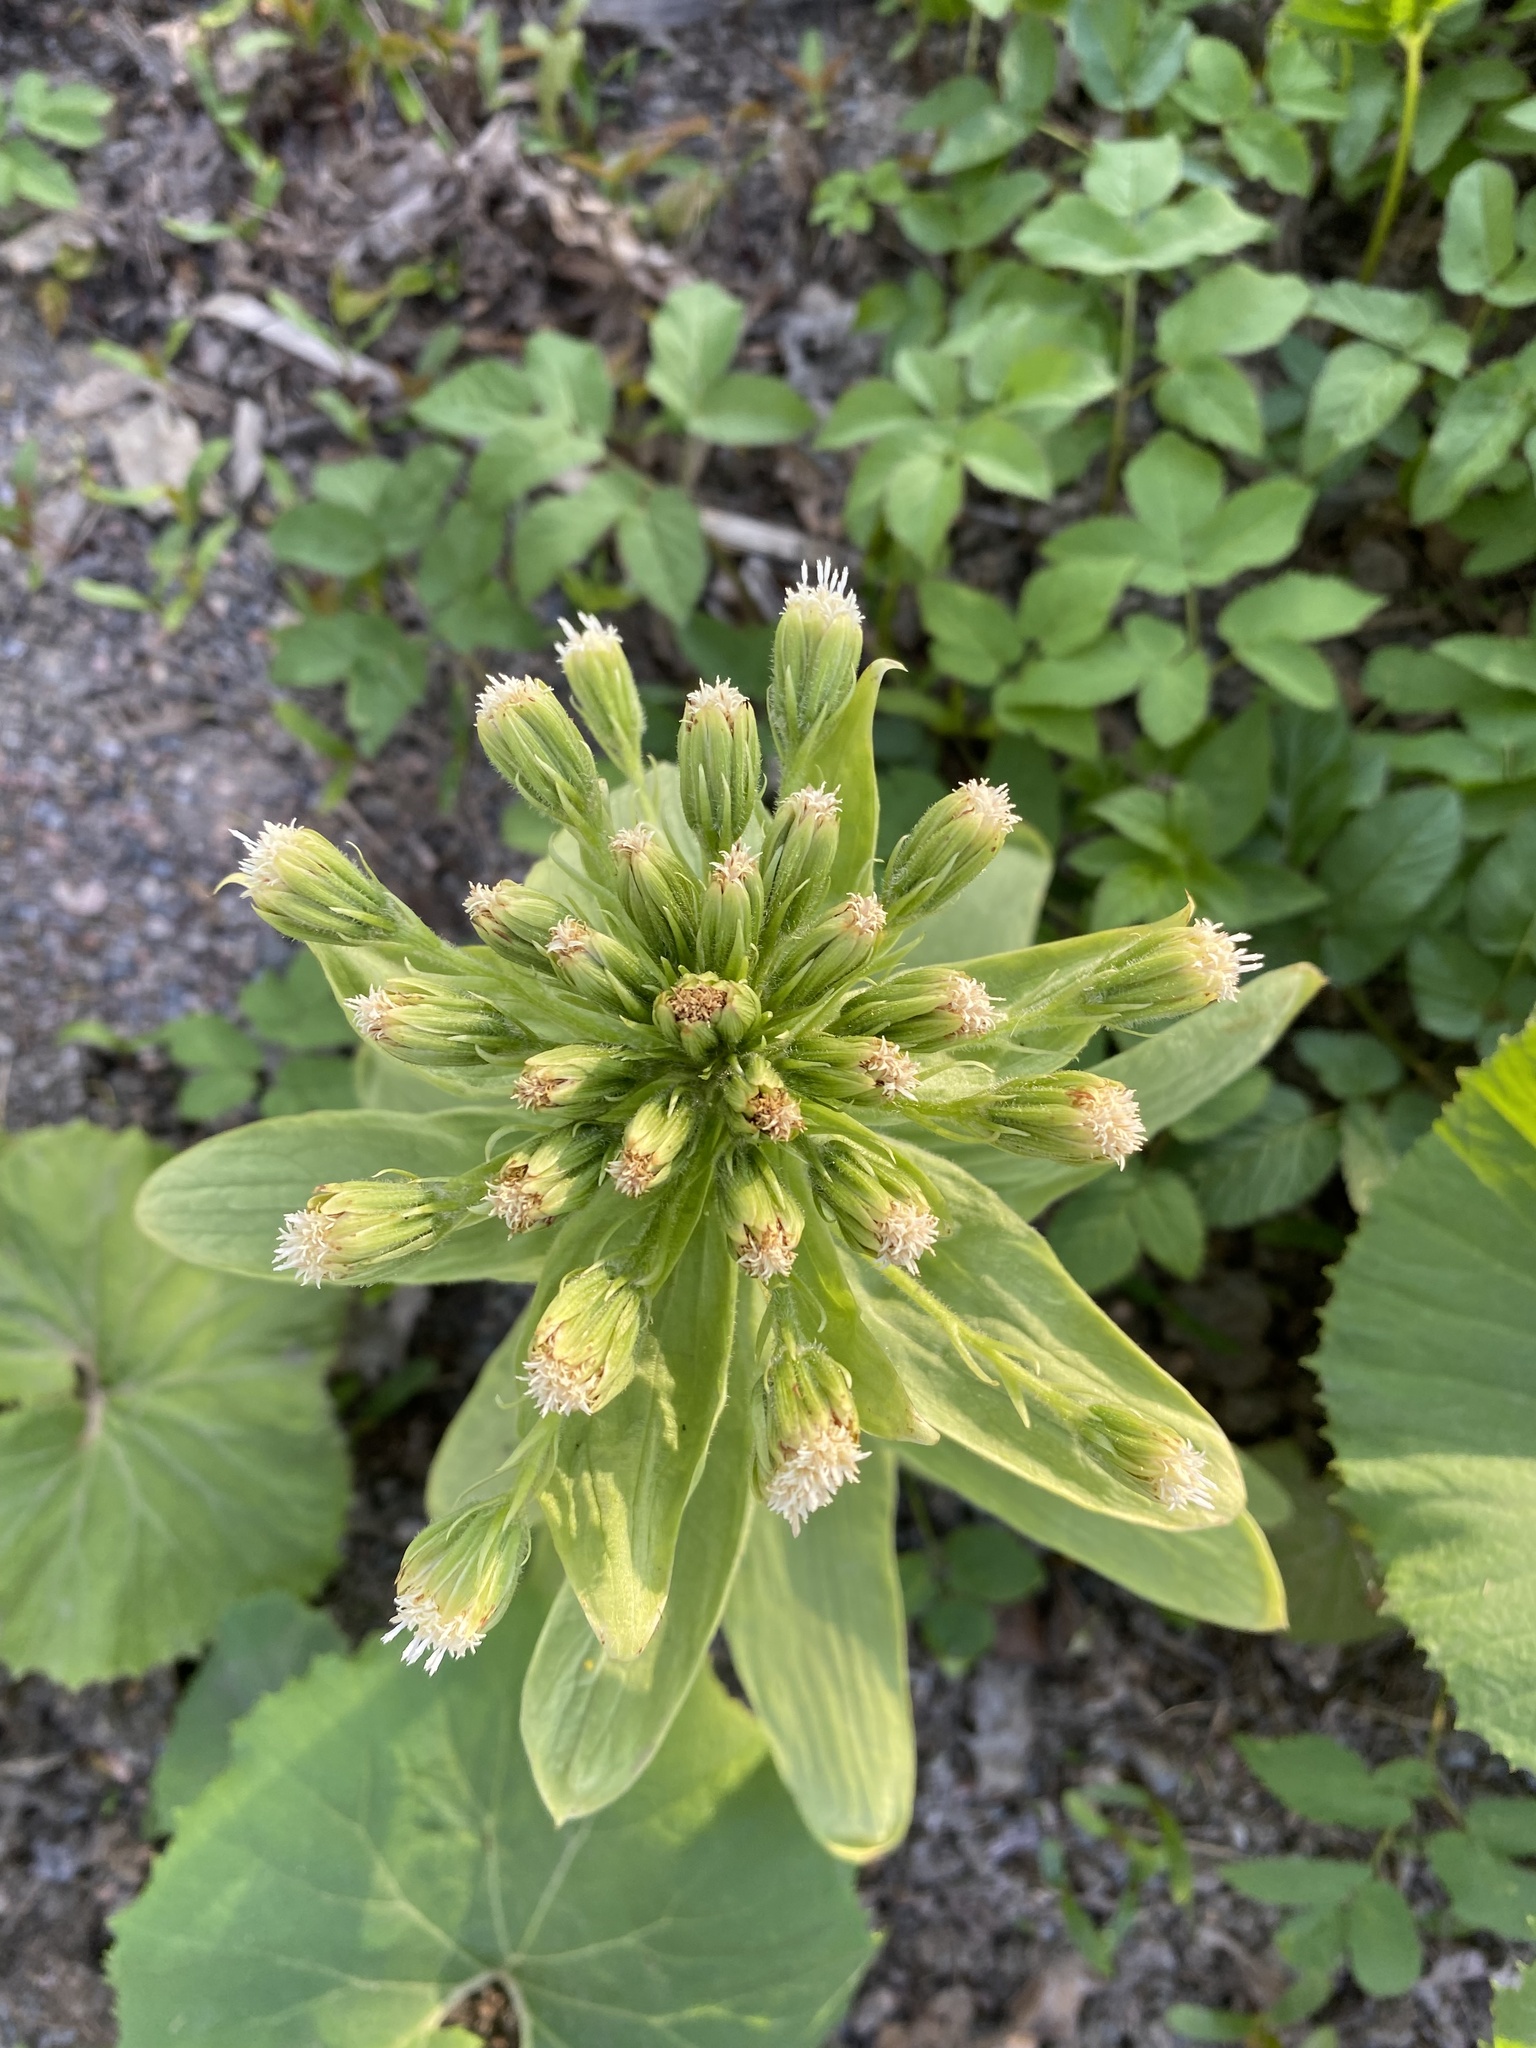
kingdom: Plantae
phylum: Tracheophyta
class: Magnoliopsida
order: Asterales
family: Asteraceae
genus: Petasites
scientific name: Petasites japonicus
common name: Giant butterbur
